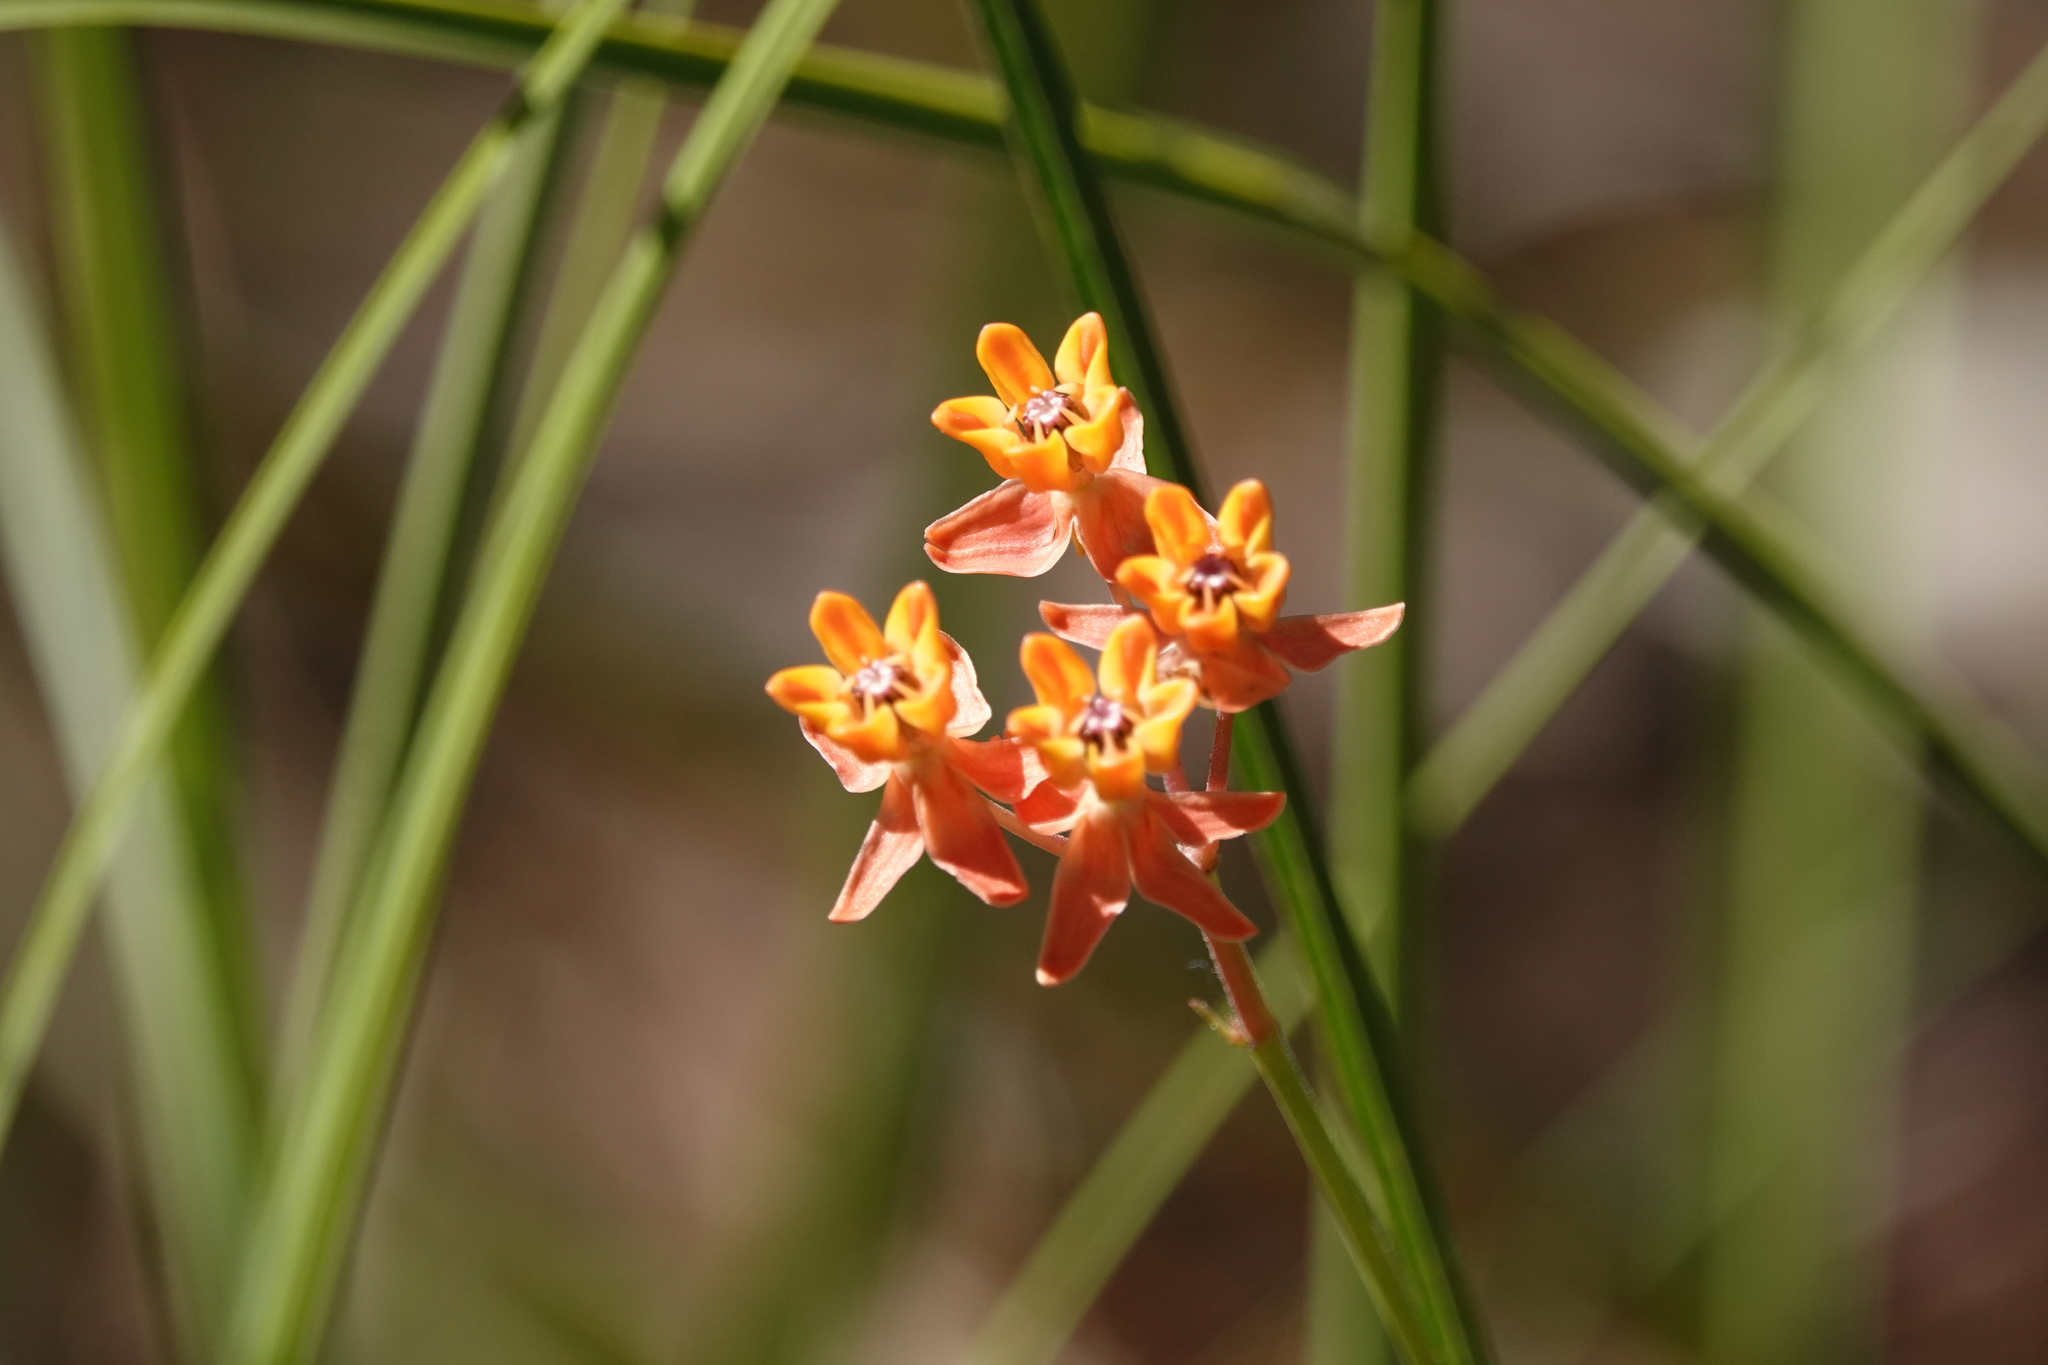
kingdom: Plantae
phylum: Tracheophyta
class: Magnoliopsida
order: Gentianales
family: Apocynaceae
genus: Asclepias
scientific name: Asclepias lanceolata
